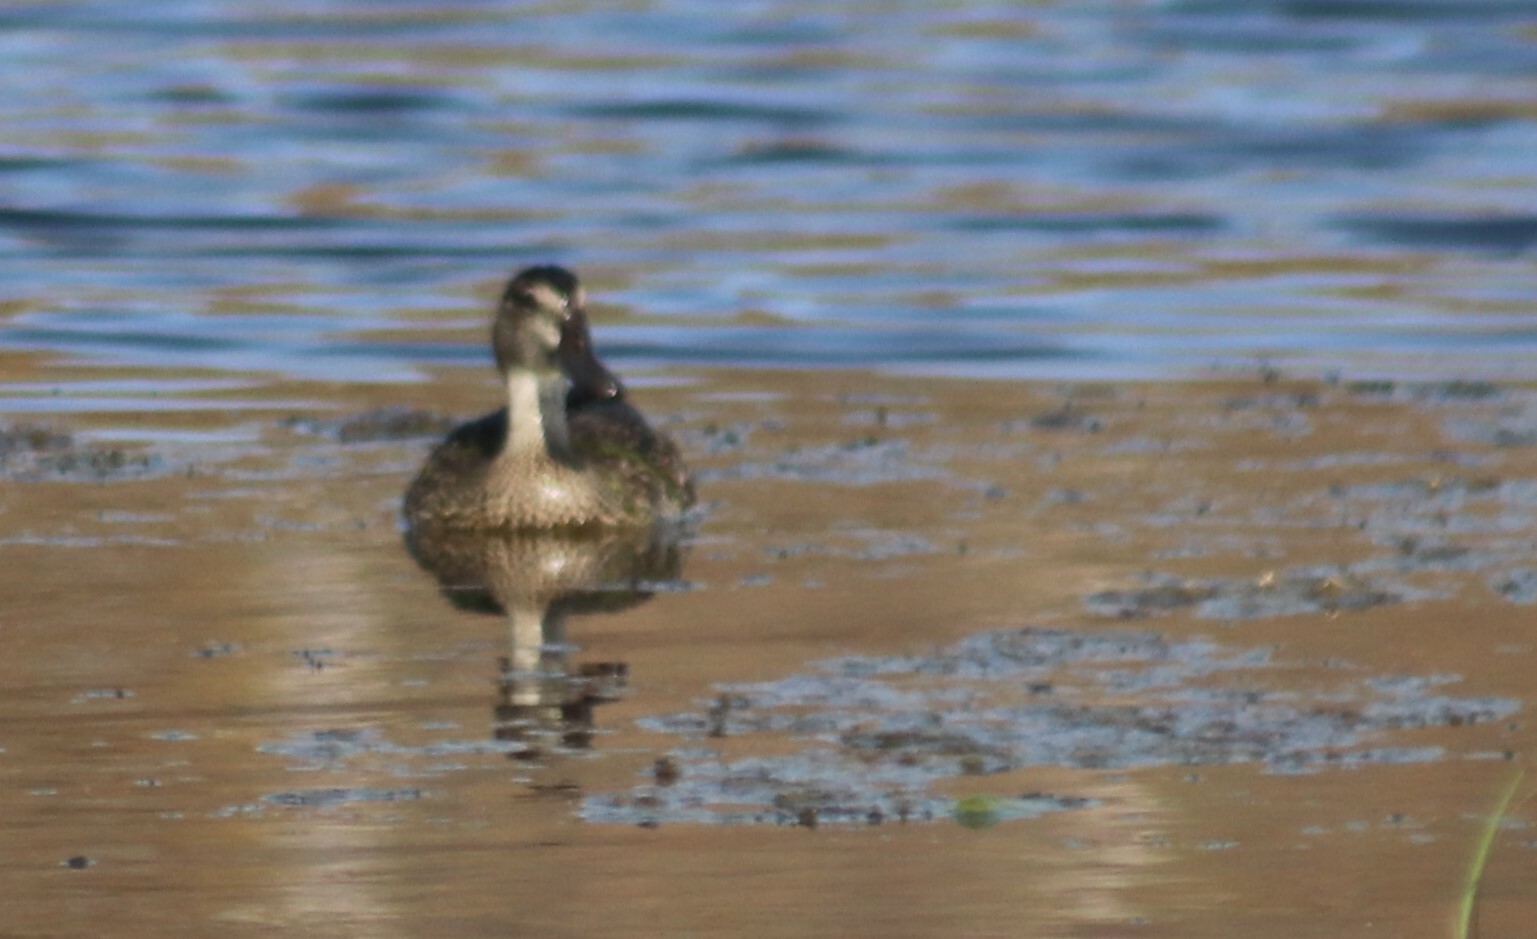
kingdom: Animalia
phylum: Chordata
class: Aves
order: Anseriformes
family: Anatidae
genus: Anas
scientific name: Anas platyrhynchos
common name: Mallard
